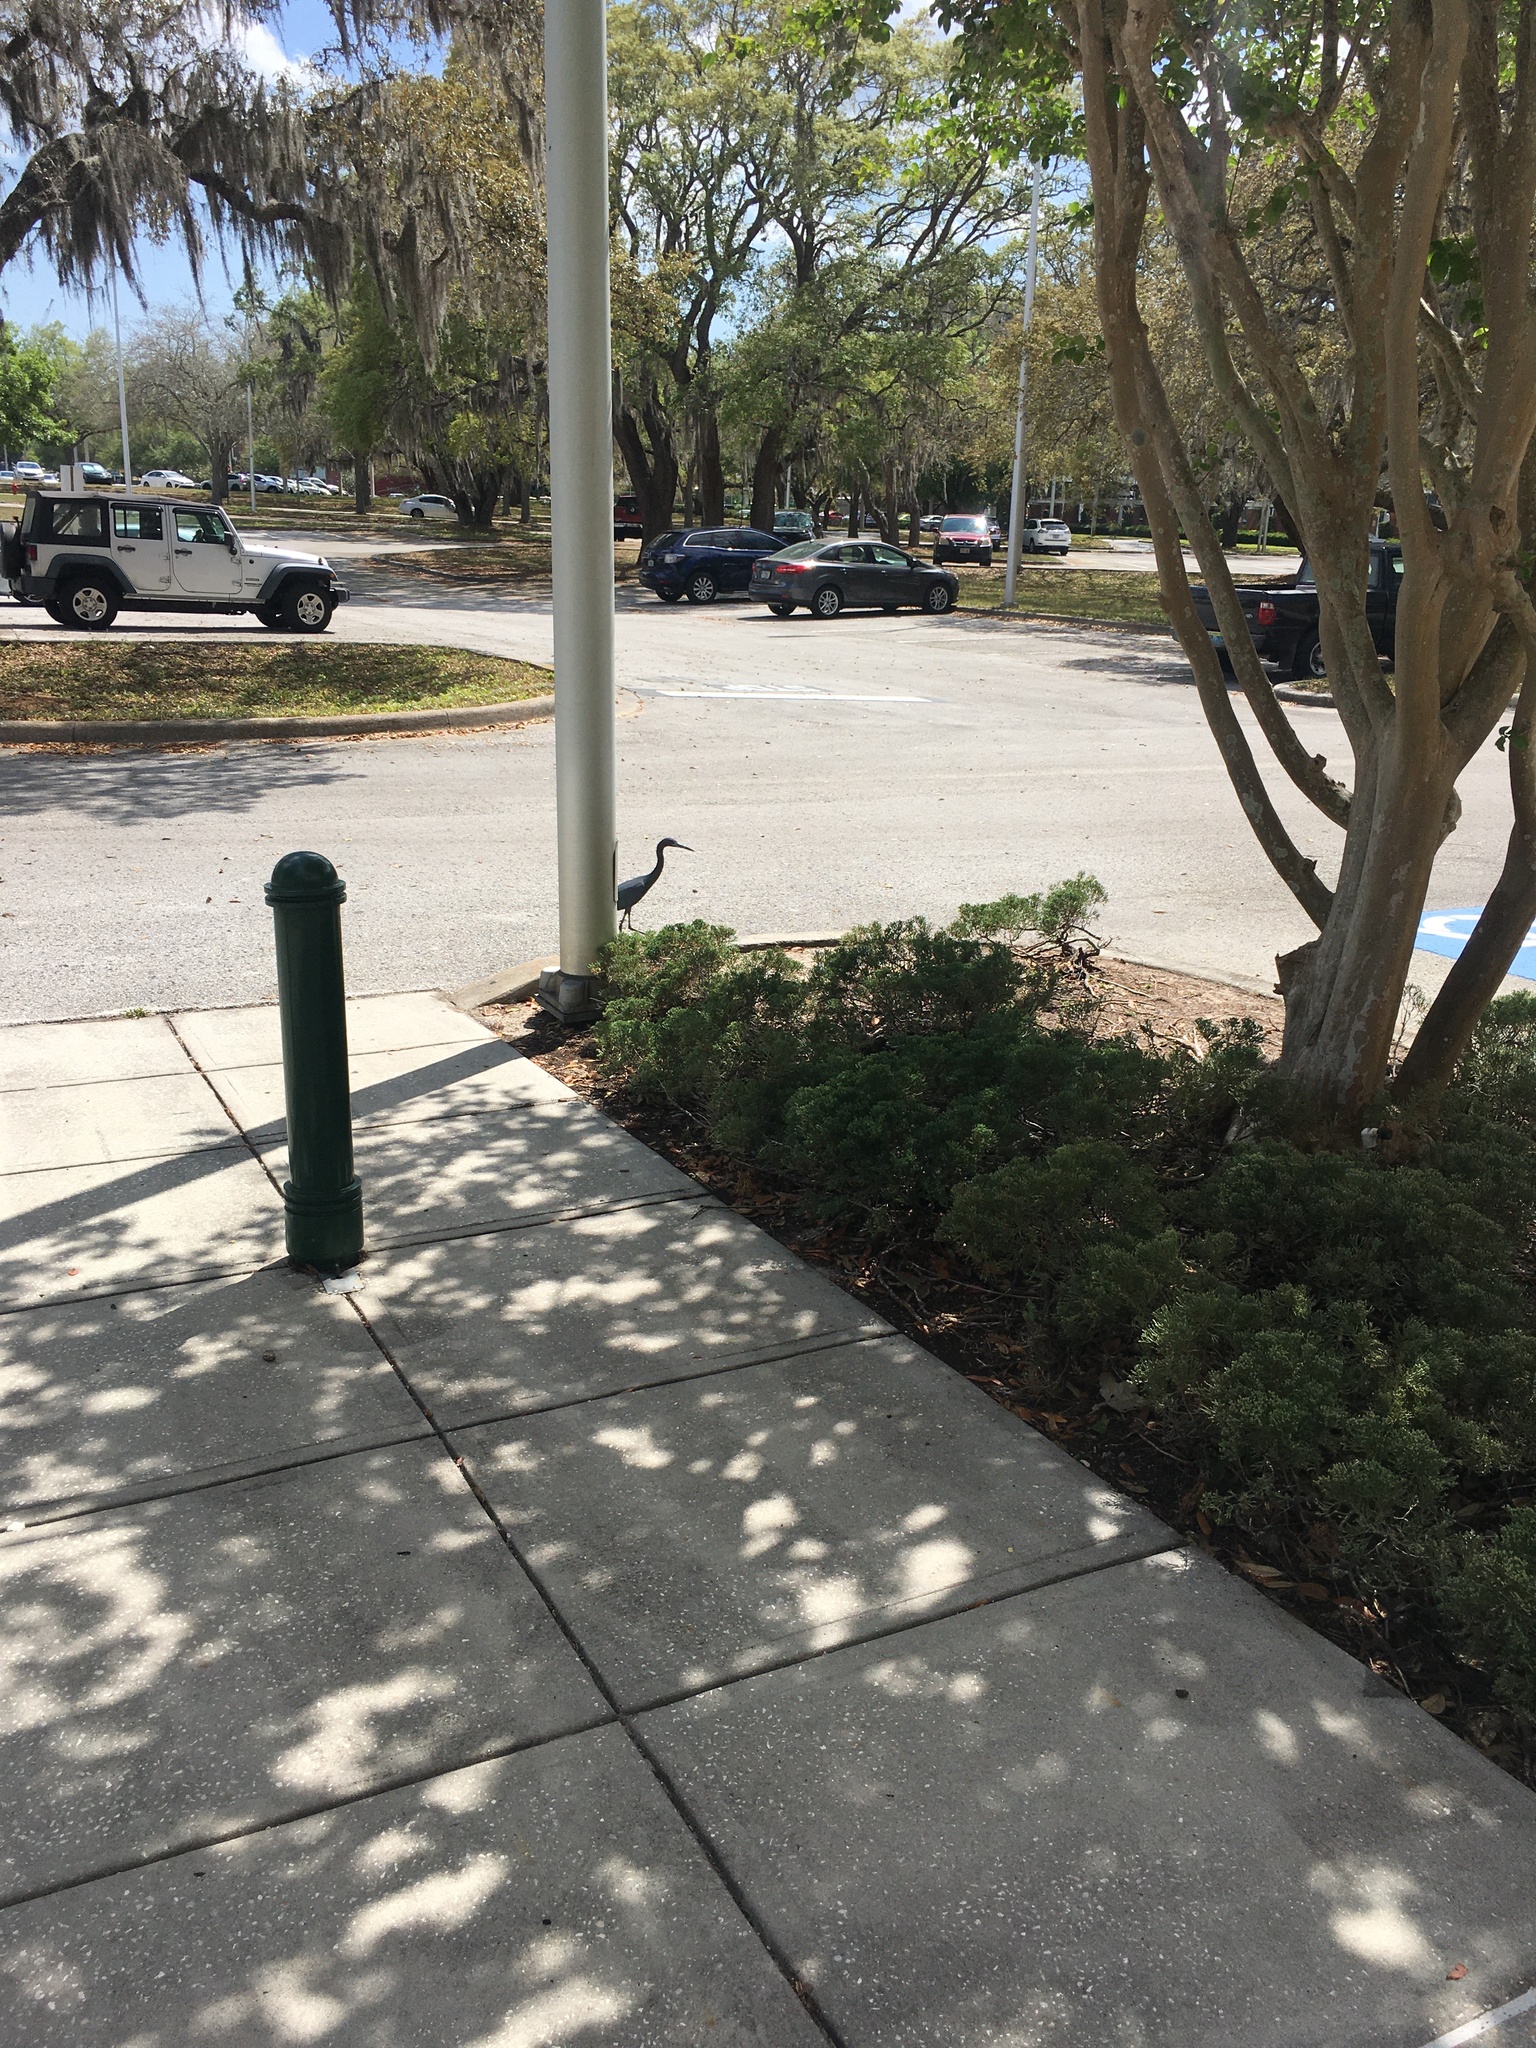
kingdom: Animalia
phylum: Chordata
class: Aves
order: Pelecaniformes
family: Ardeidae
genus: Egretta
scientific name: Egretta caerulea
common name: Little blue heron
